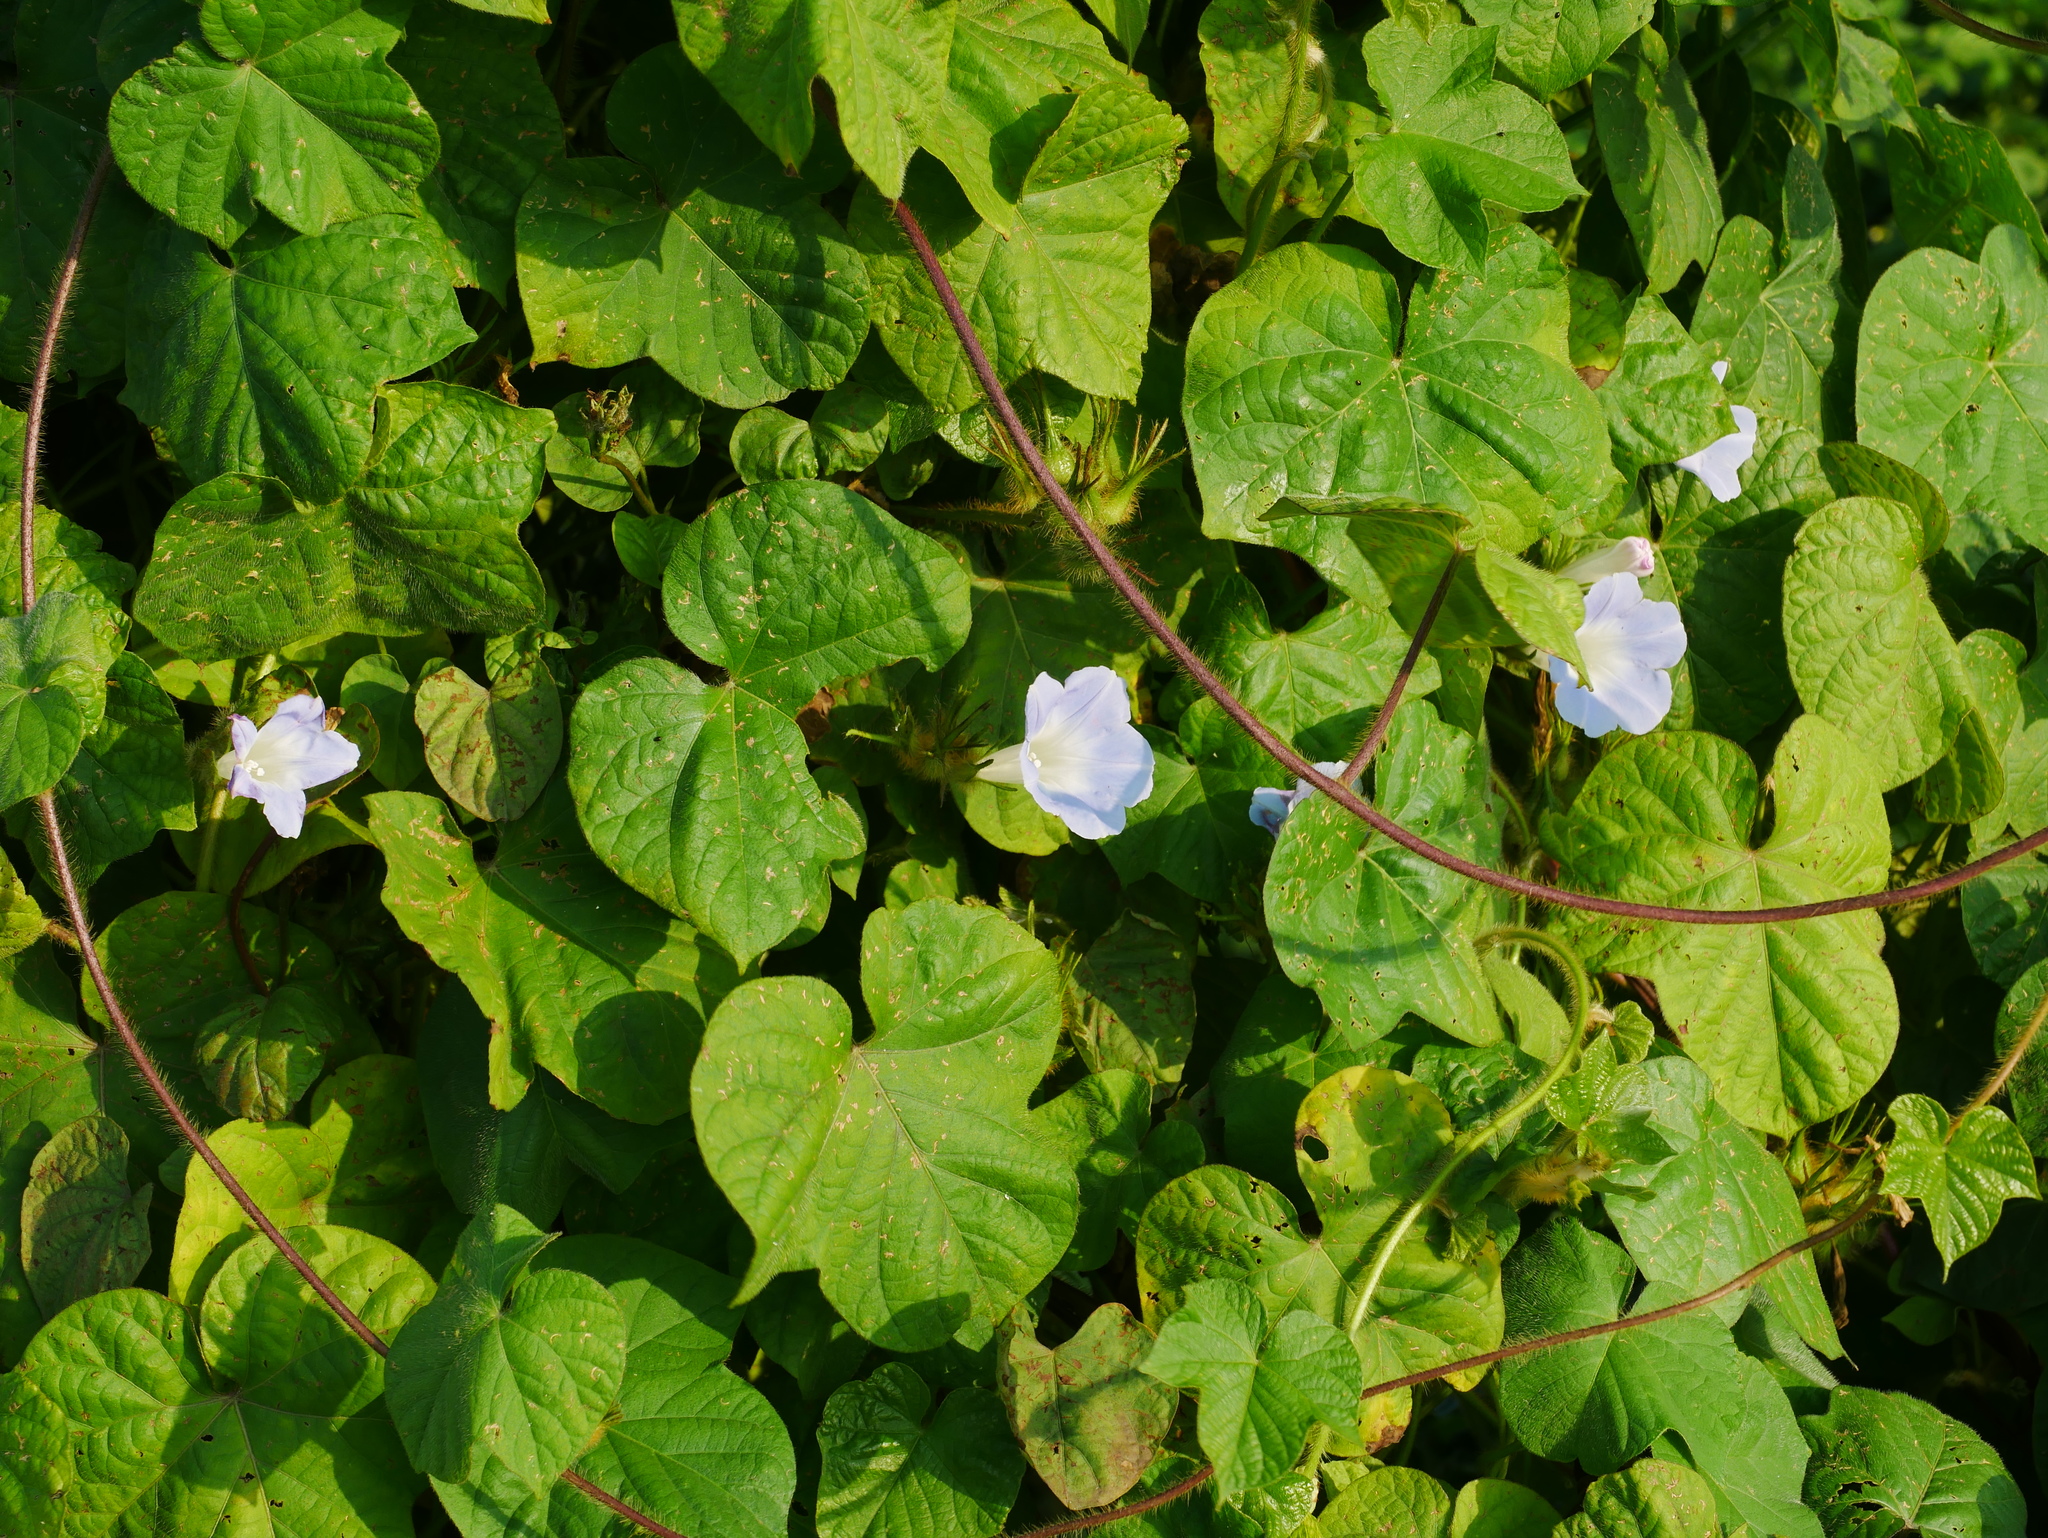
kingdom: Plantae
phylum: Tracheophyta
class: Magnoliopsida
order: Solanales
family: Convolvulaceae
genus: Ipomoea
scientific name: Ipomoea nil
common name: Japanese morning-glory
